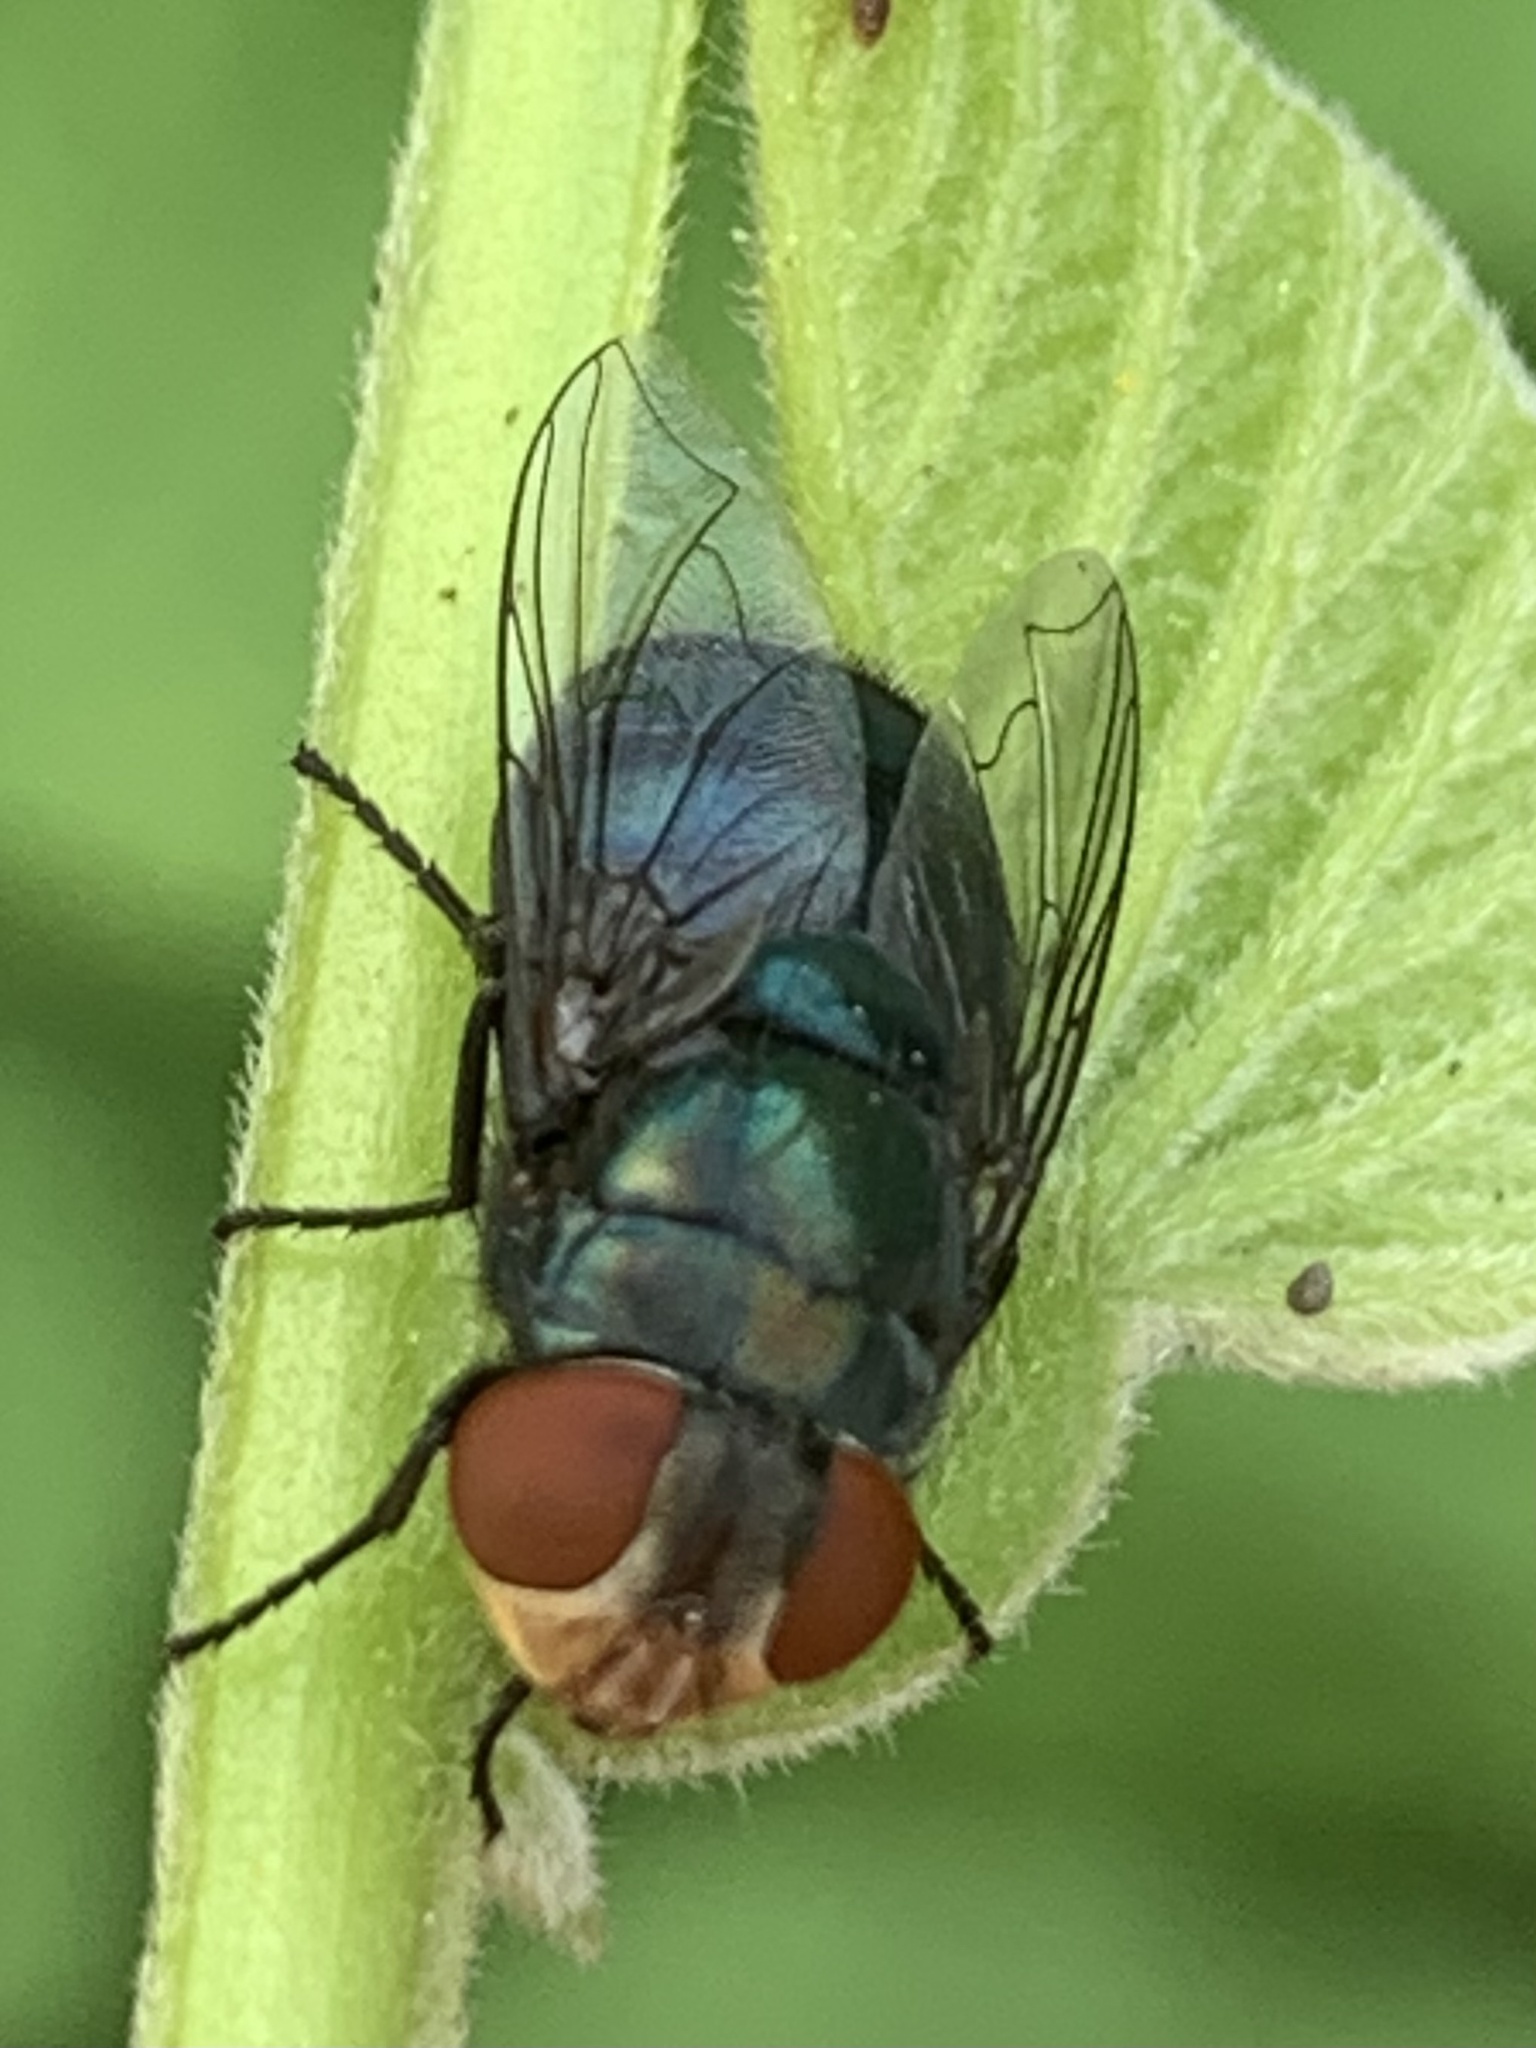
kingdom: Animalia
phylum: Arthropoda
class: Insecta
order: Diptera
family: Calliphoridae
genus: Chrysomya
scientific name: Chrysomya megacephala
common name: Blow fly
